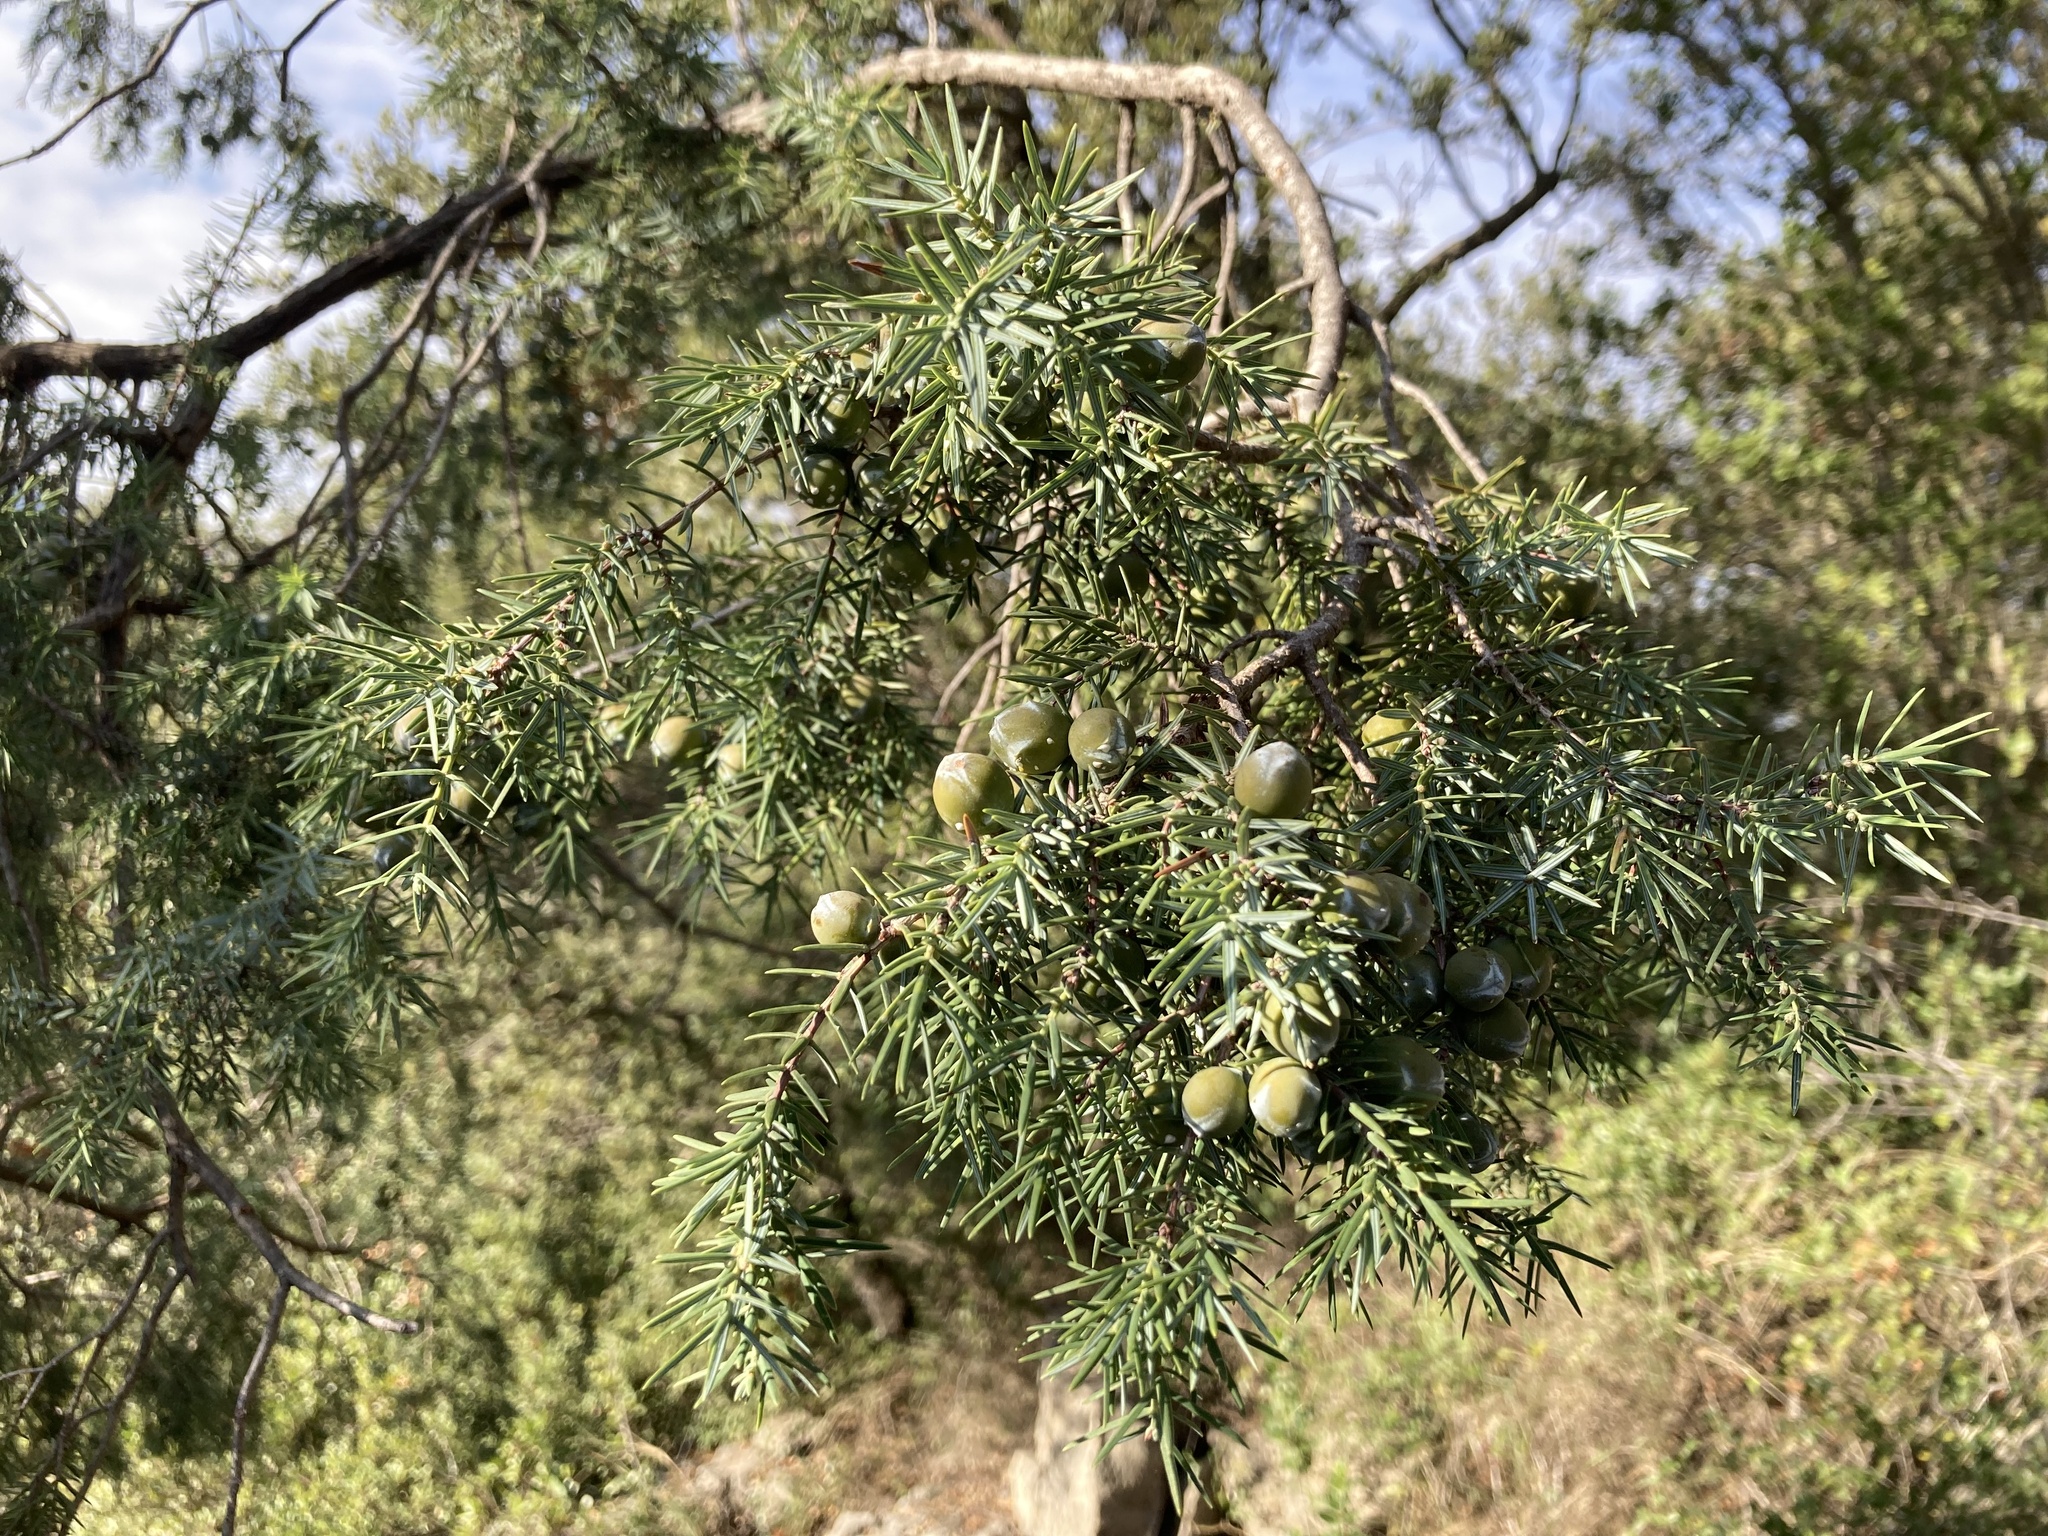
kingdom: Plantae
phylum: Tracheophyta
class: Pinopsida
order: Pinales
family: Cupressaceae
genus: Juniperus
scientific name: Juniperus oxycedrus
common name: Prickly juniper
